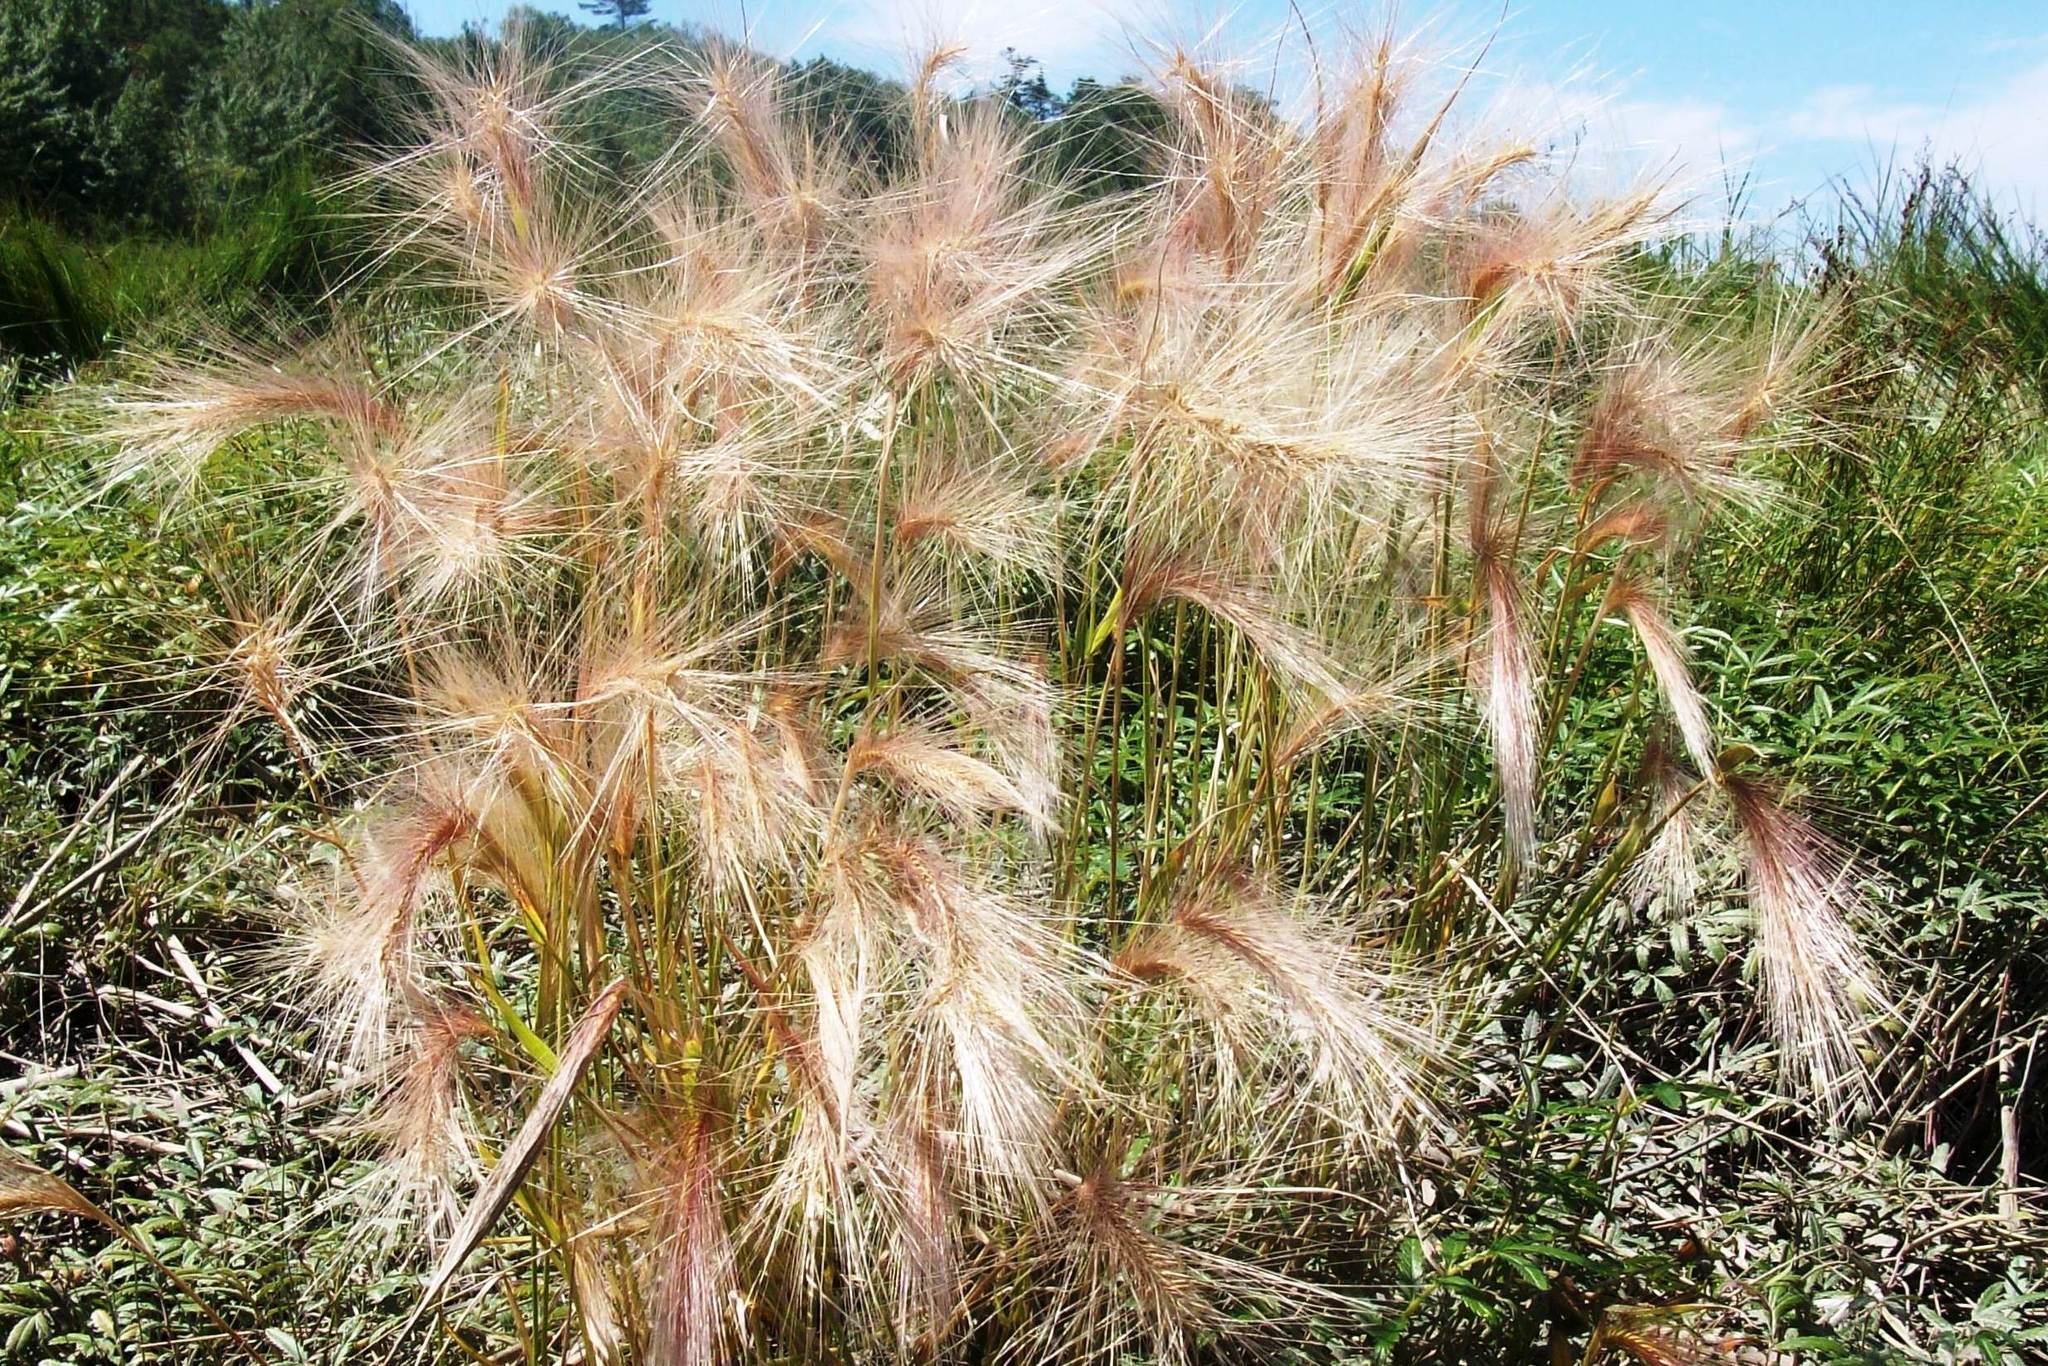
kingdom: Plantae
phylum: Tracheophyta
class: Liliopsida
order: Poales
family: Poaceae
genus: Hordeum
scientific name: Hordeum jubatum
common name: Foxtail barley
